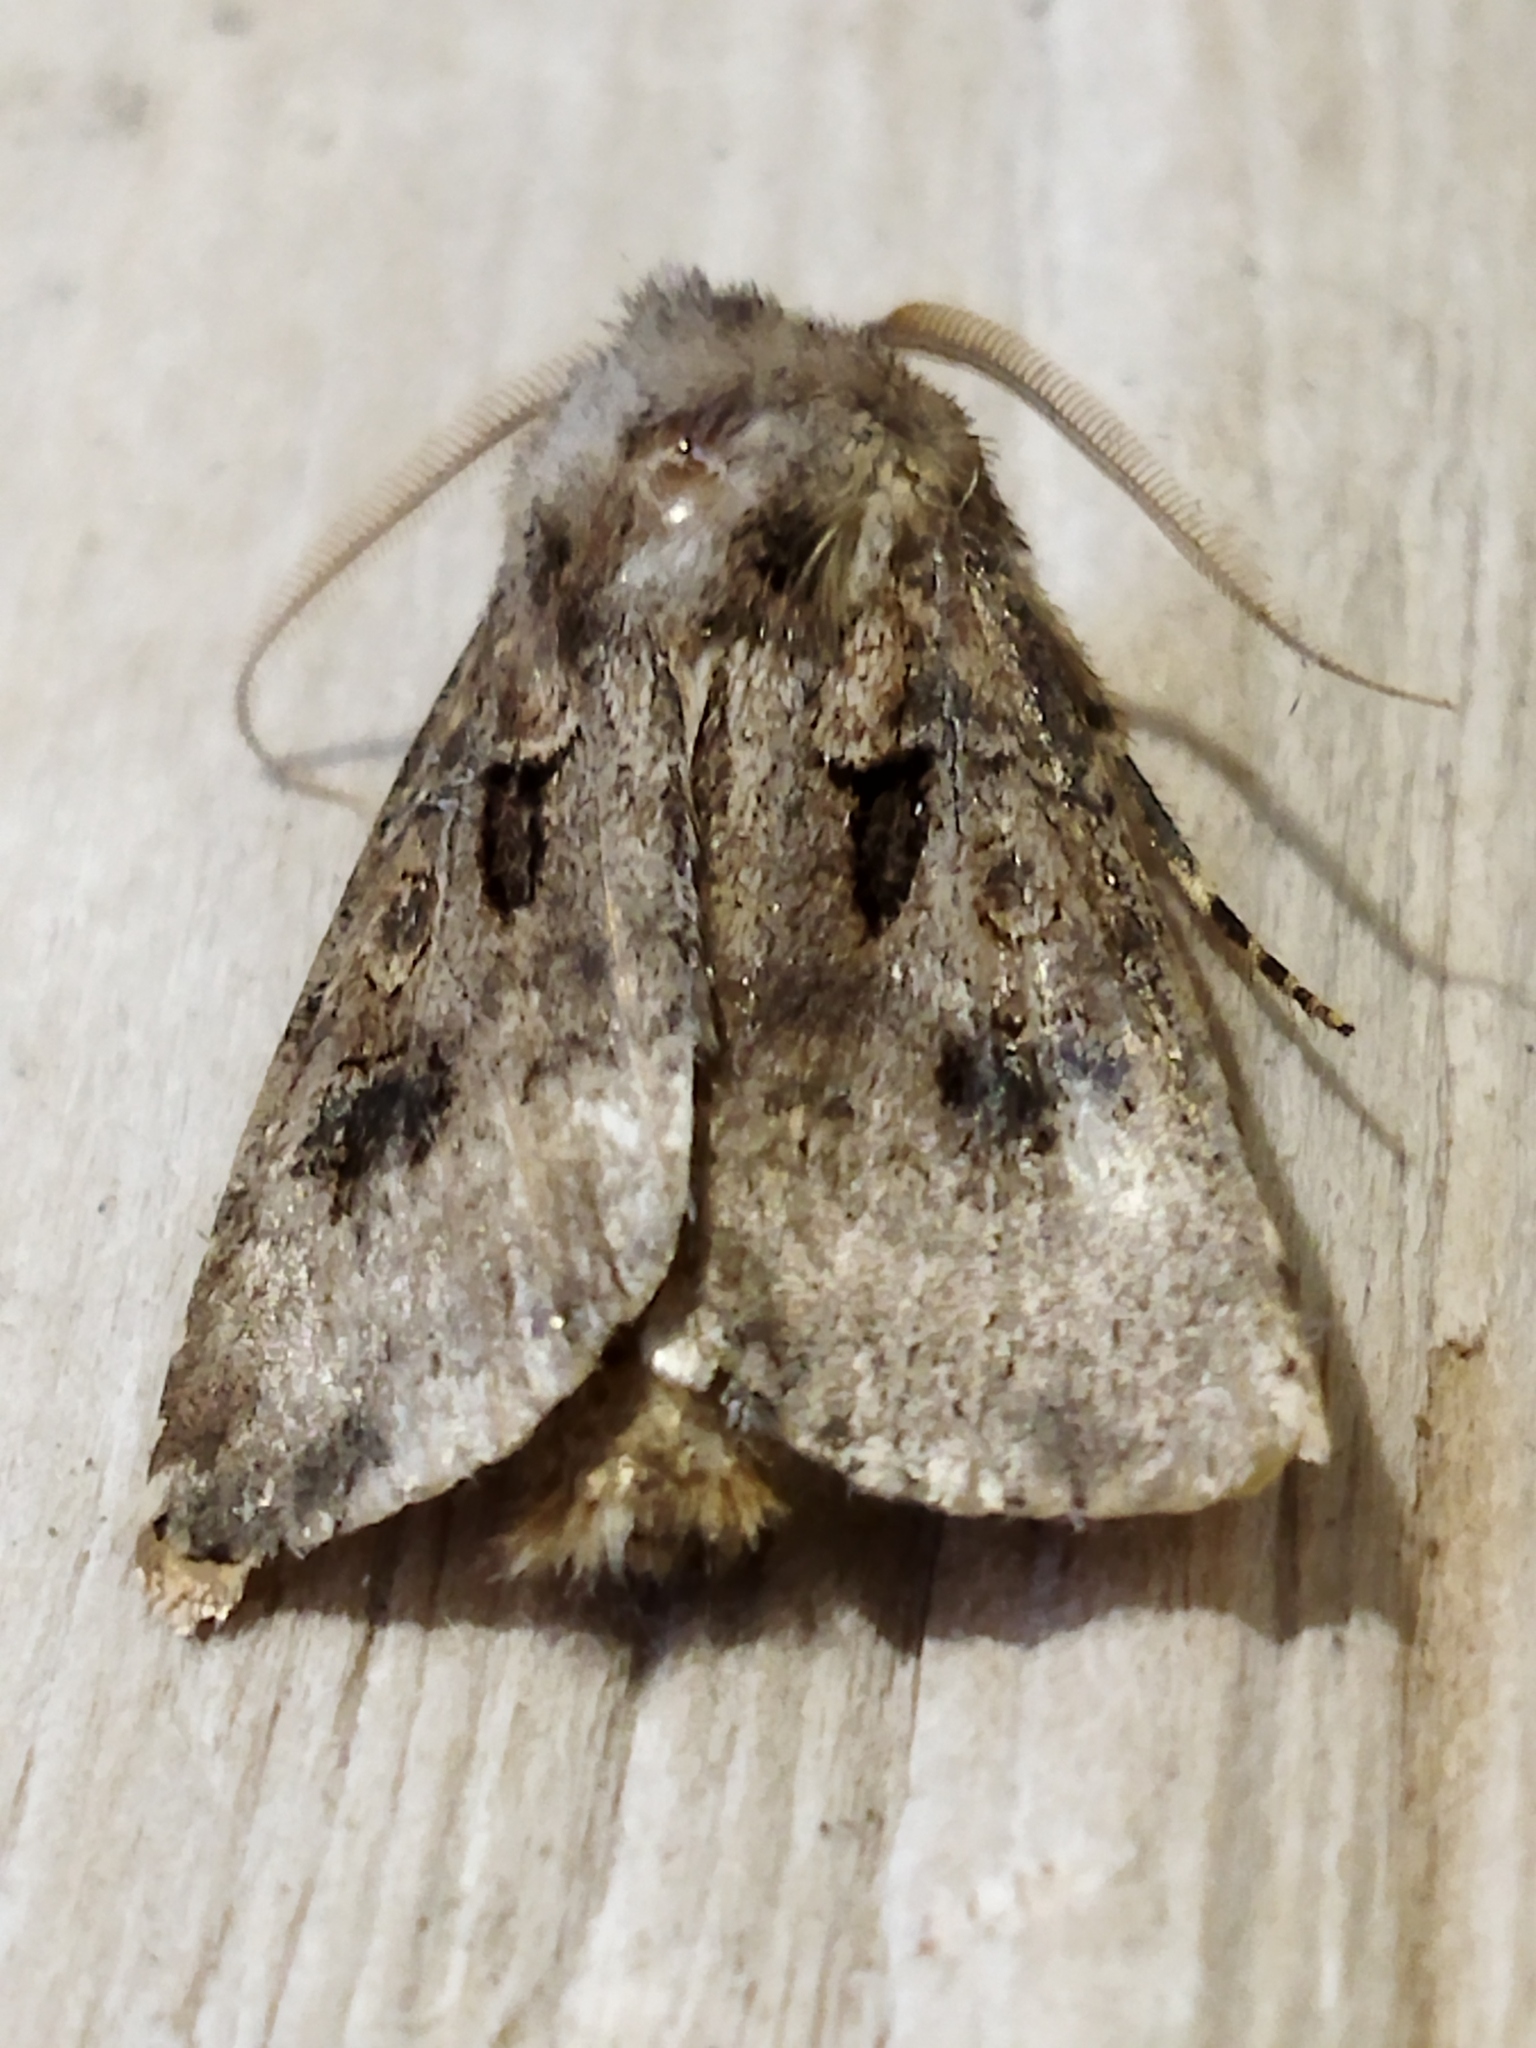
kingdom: Animalia
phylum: Arthropoda
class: Insecta
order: Lepidoptera
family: Noctuidae
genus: Agrotis
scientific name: Agrotis bigramma
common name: Great dart
